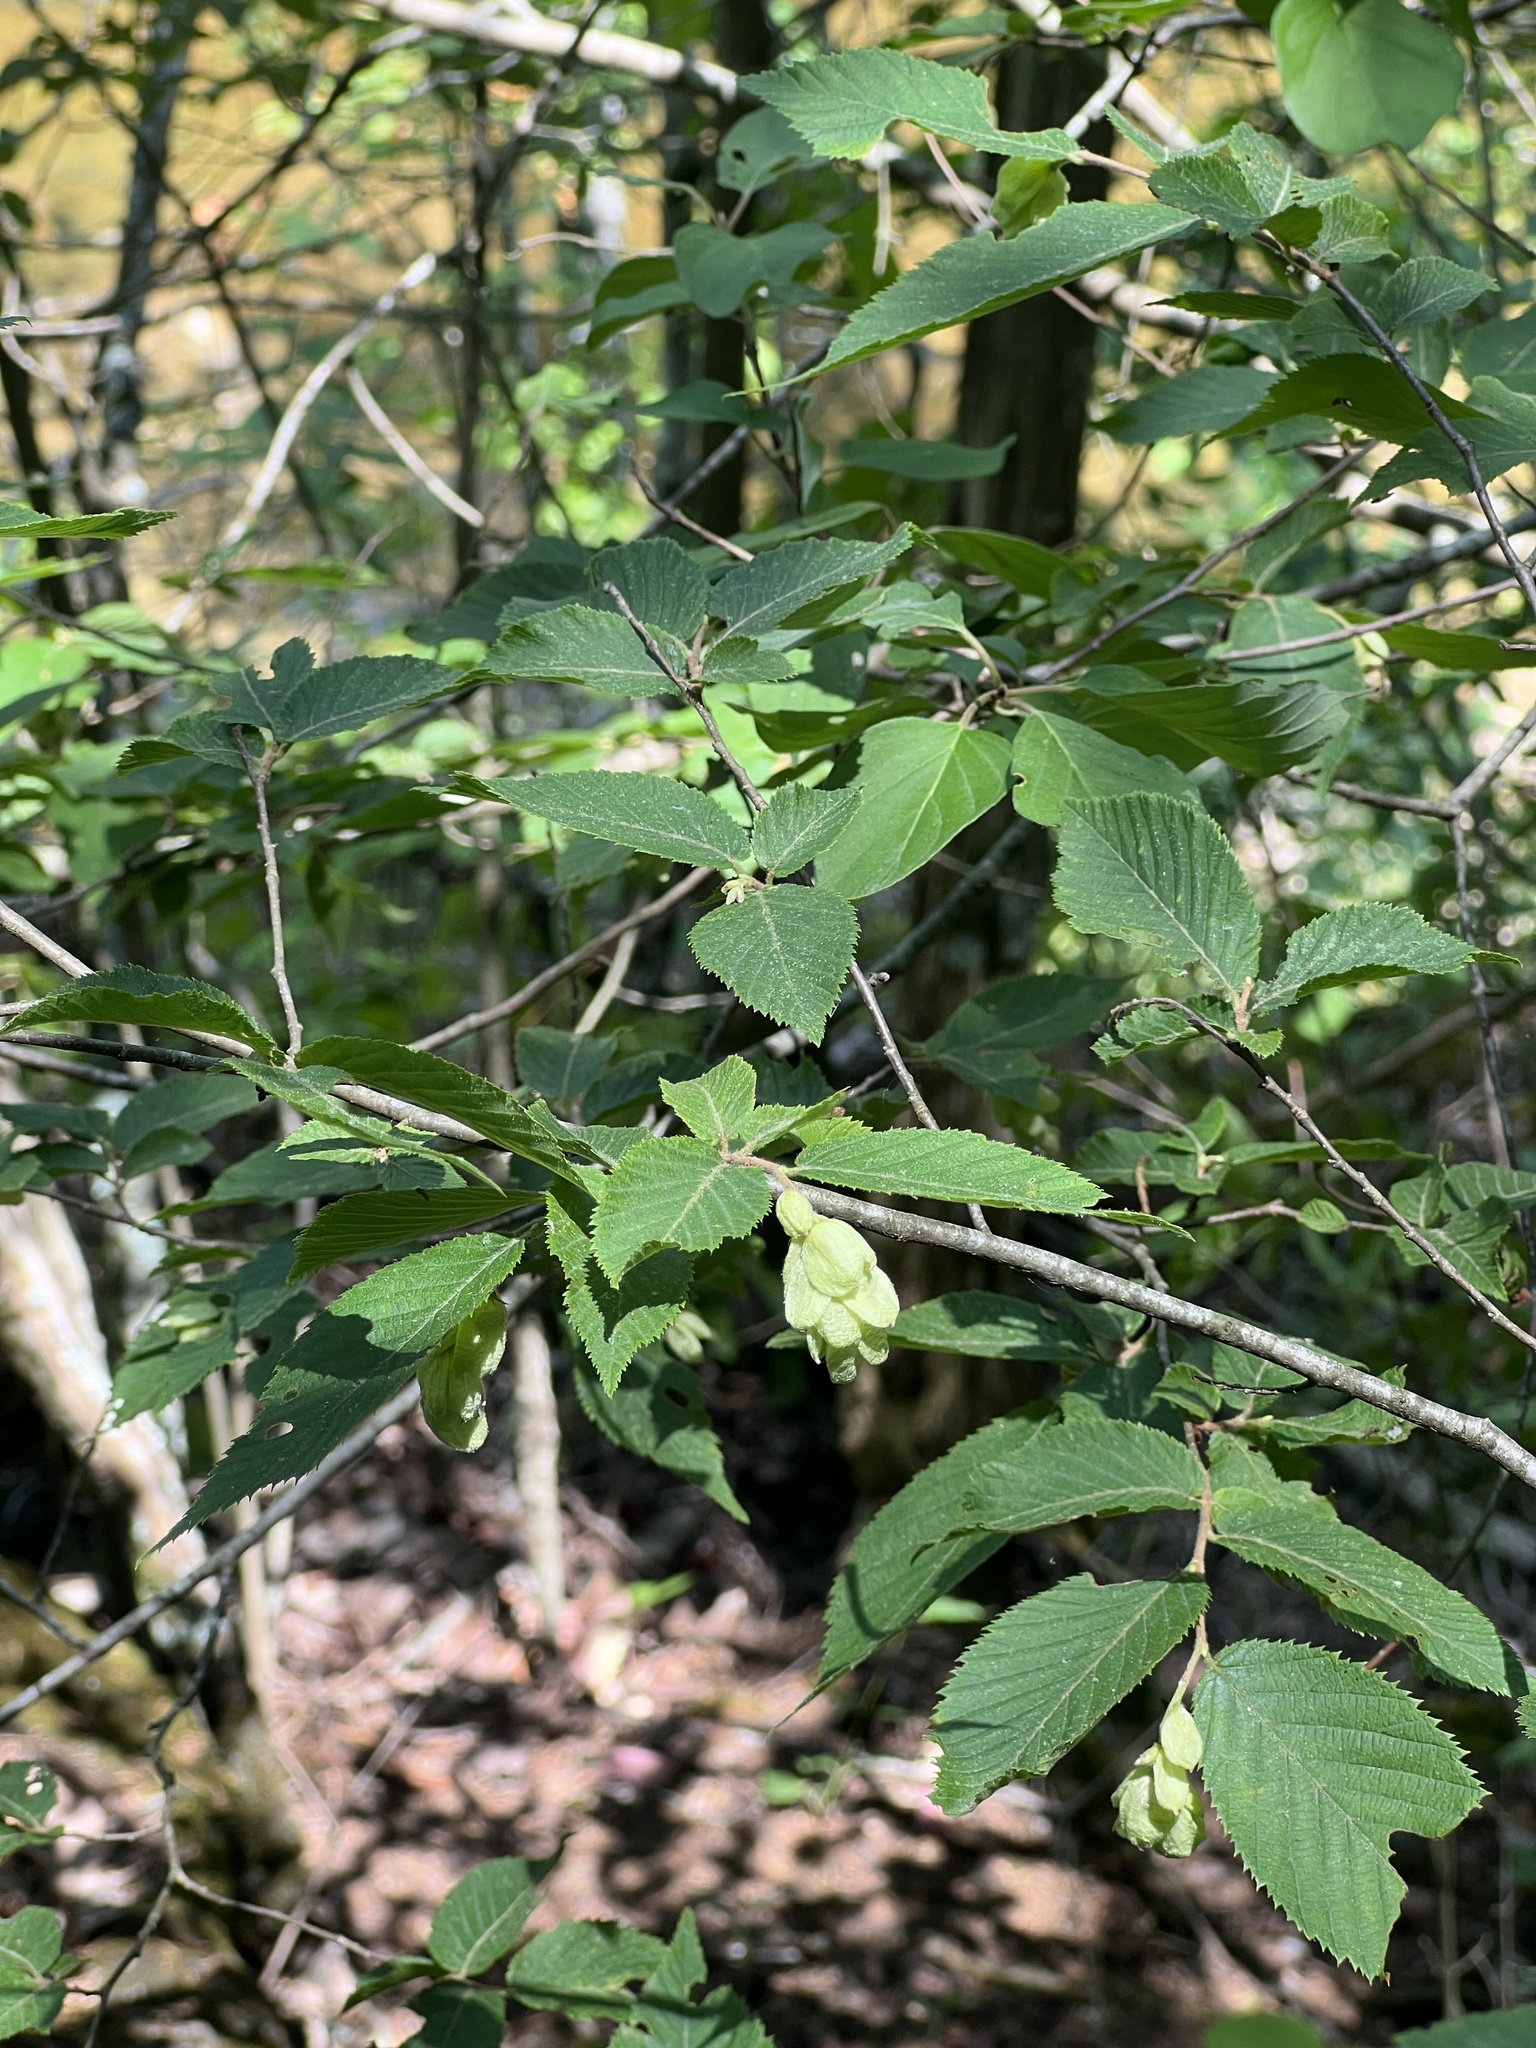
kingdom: Plantae
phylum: Tracheophyta
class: Magnoliopsida
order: Fagales
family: Betulaceae
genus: Ostrya
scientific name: Ostrya virginiana
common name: Ironwood
